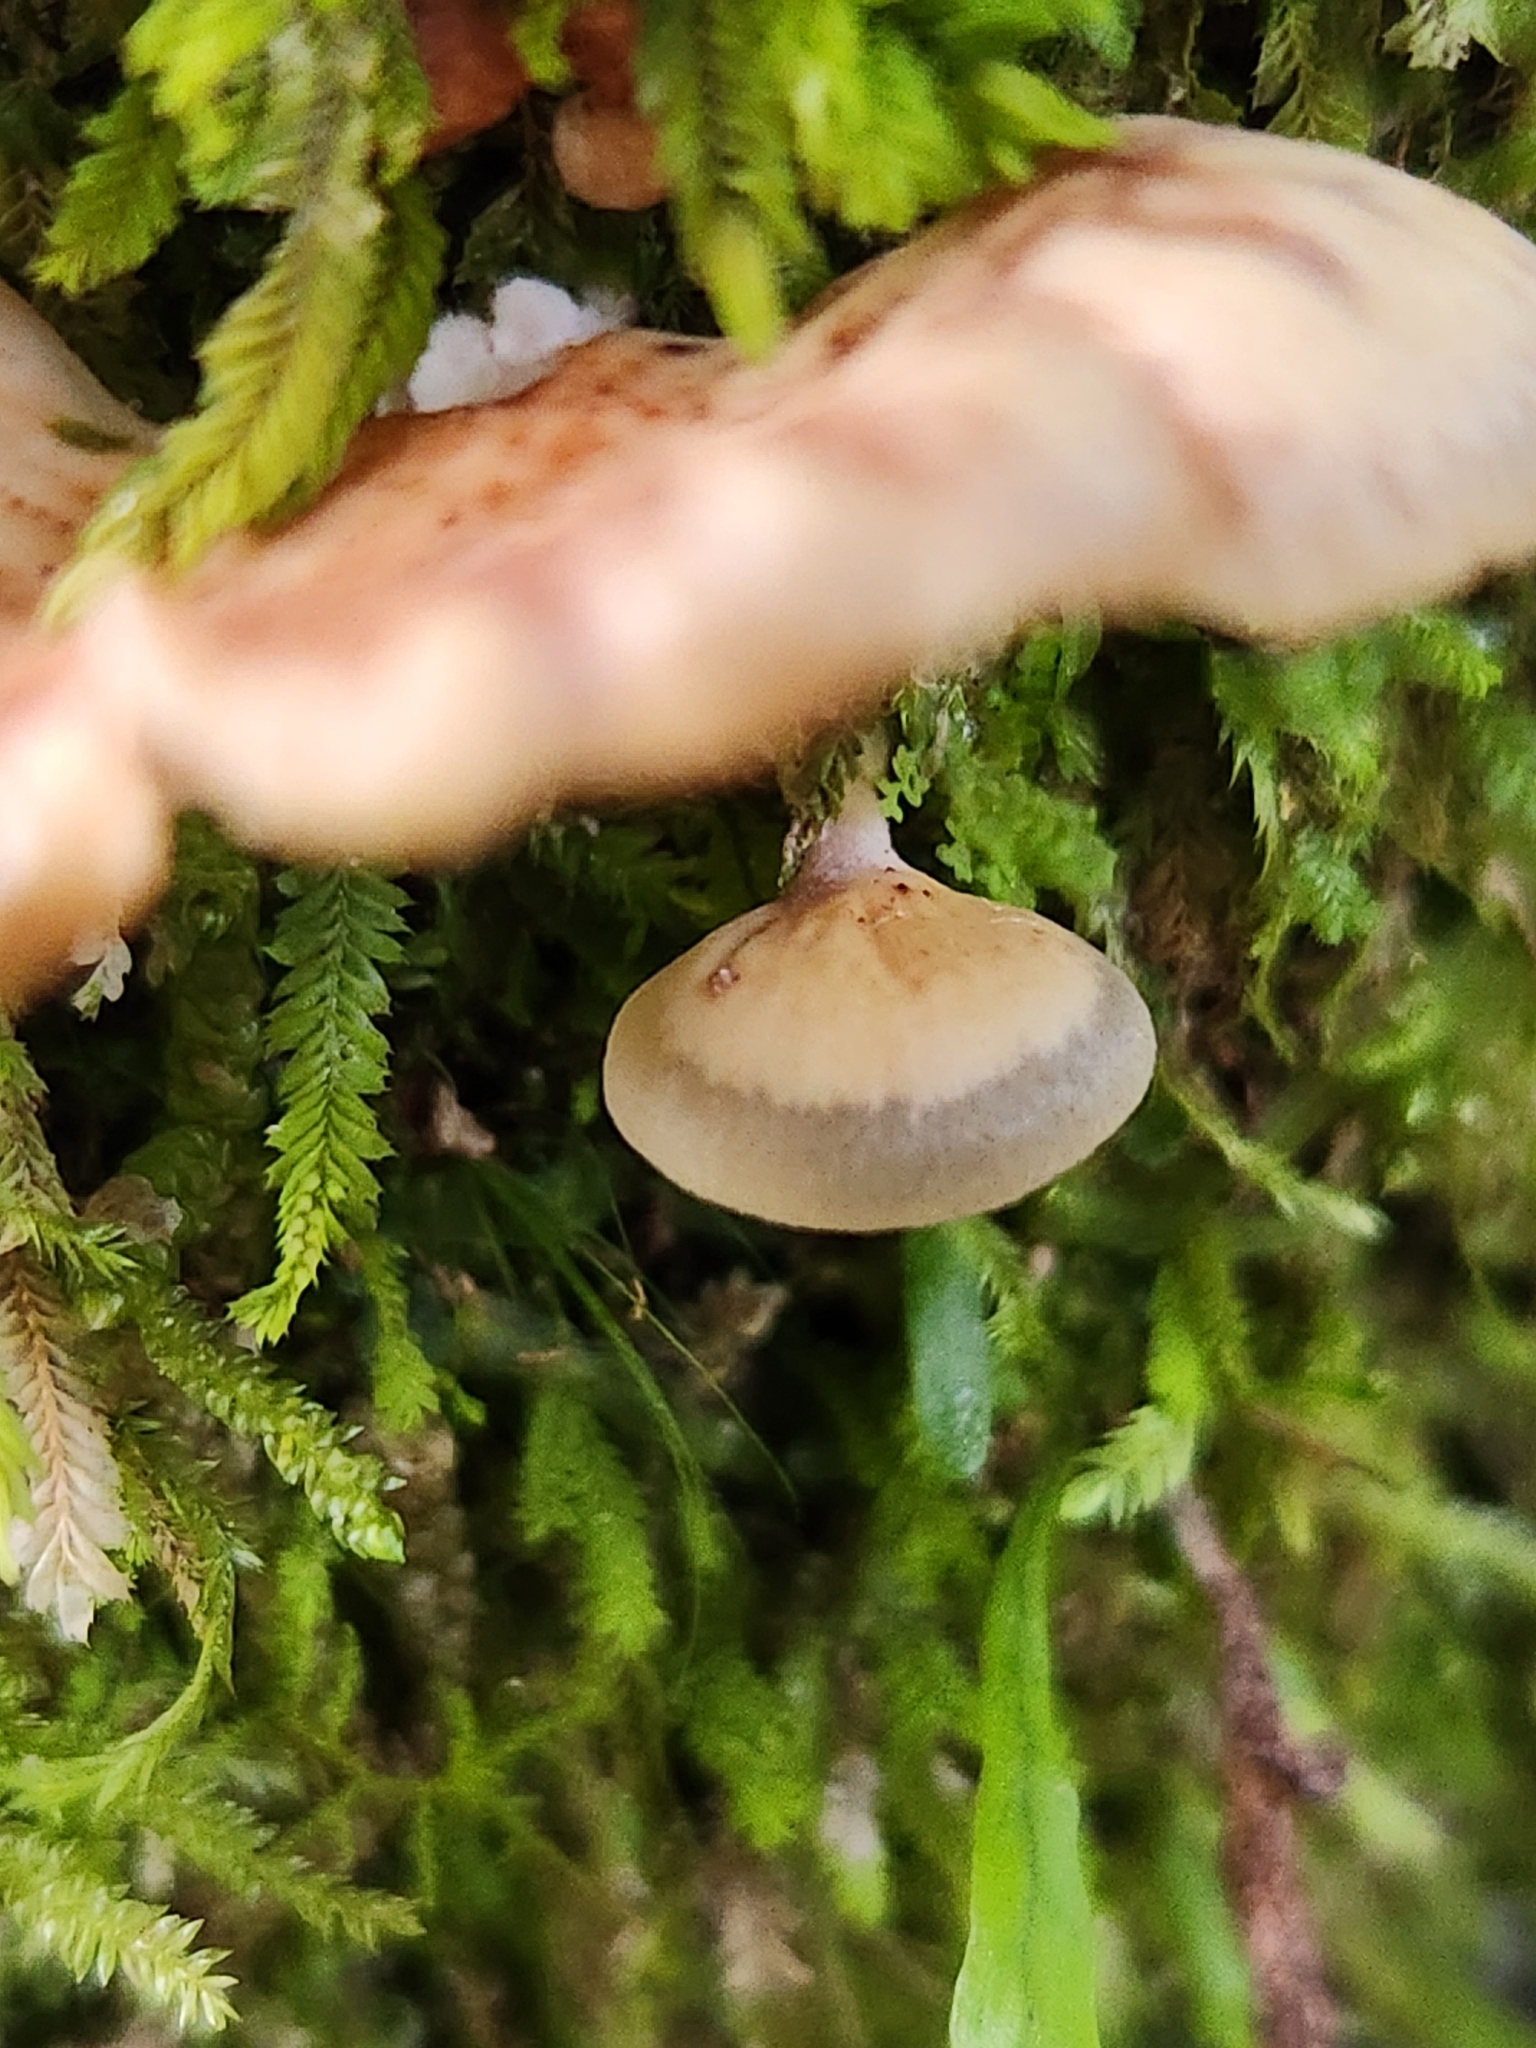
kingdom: Fungi
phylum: Basidiomycota
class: Agaricomycetes
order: Agaricales
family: Mycenaceae
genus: Panellus
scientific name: Panellus longinquus
